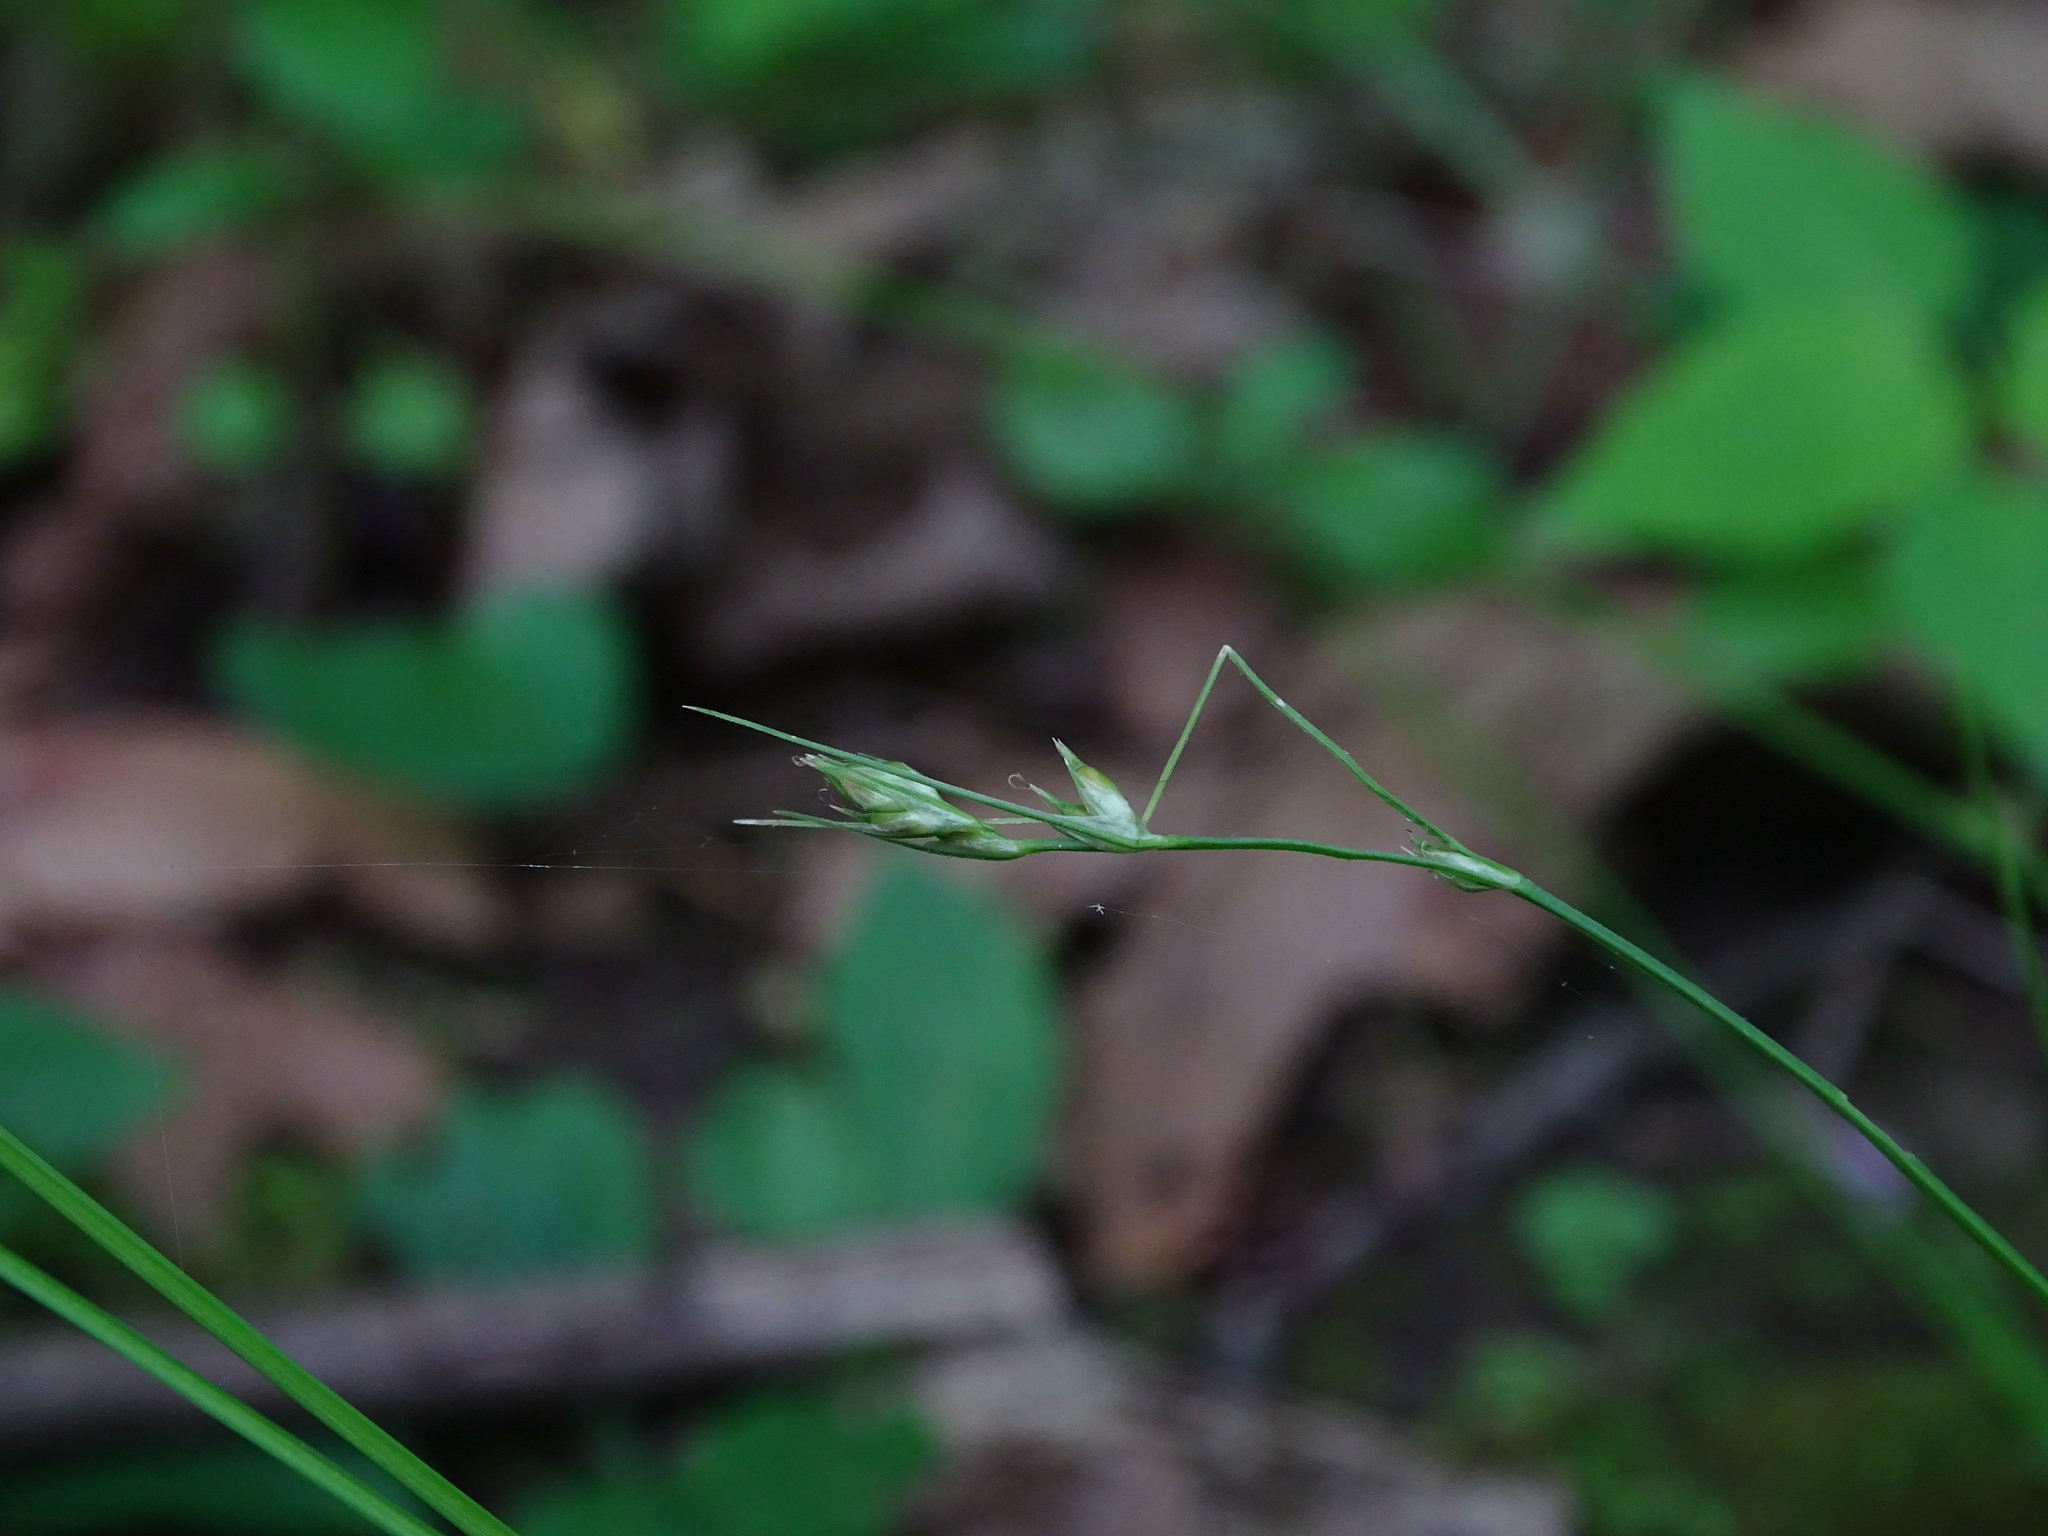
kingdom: Plantae
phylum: Tracheophyta
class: Liliopsida
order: Poales
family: Cyperaceae
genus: Carex
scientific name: Carex deweyana
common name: Dewey's sedge
